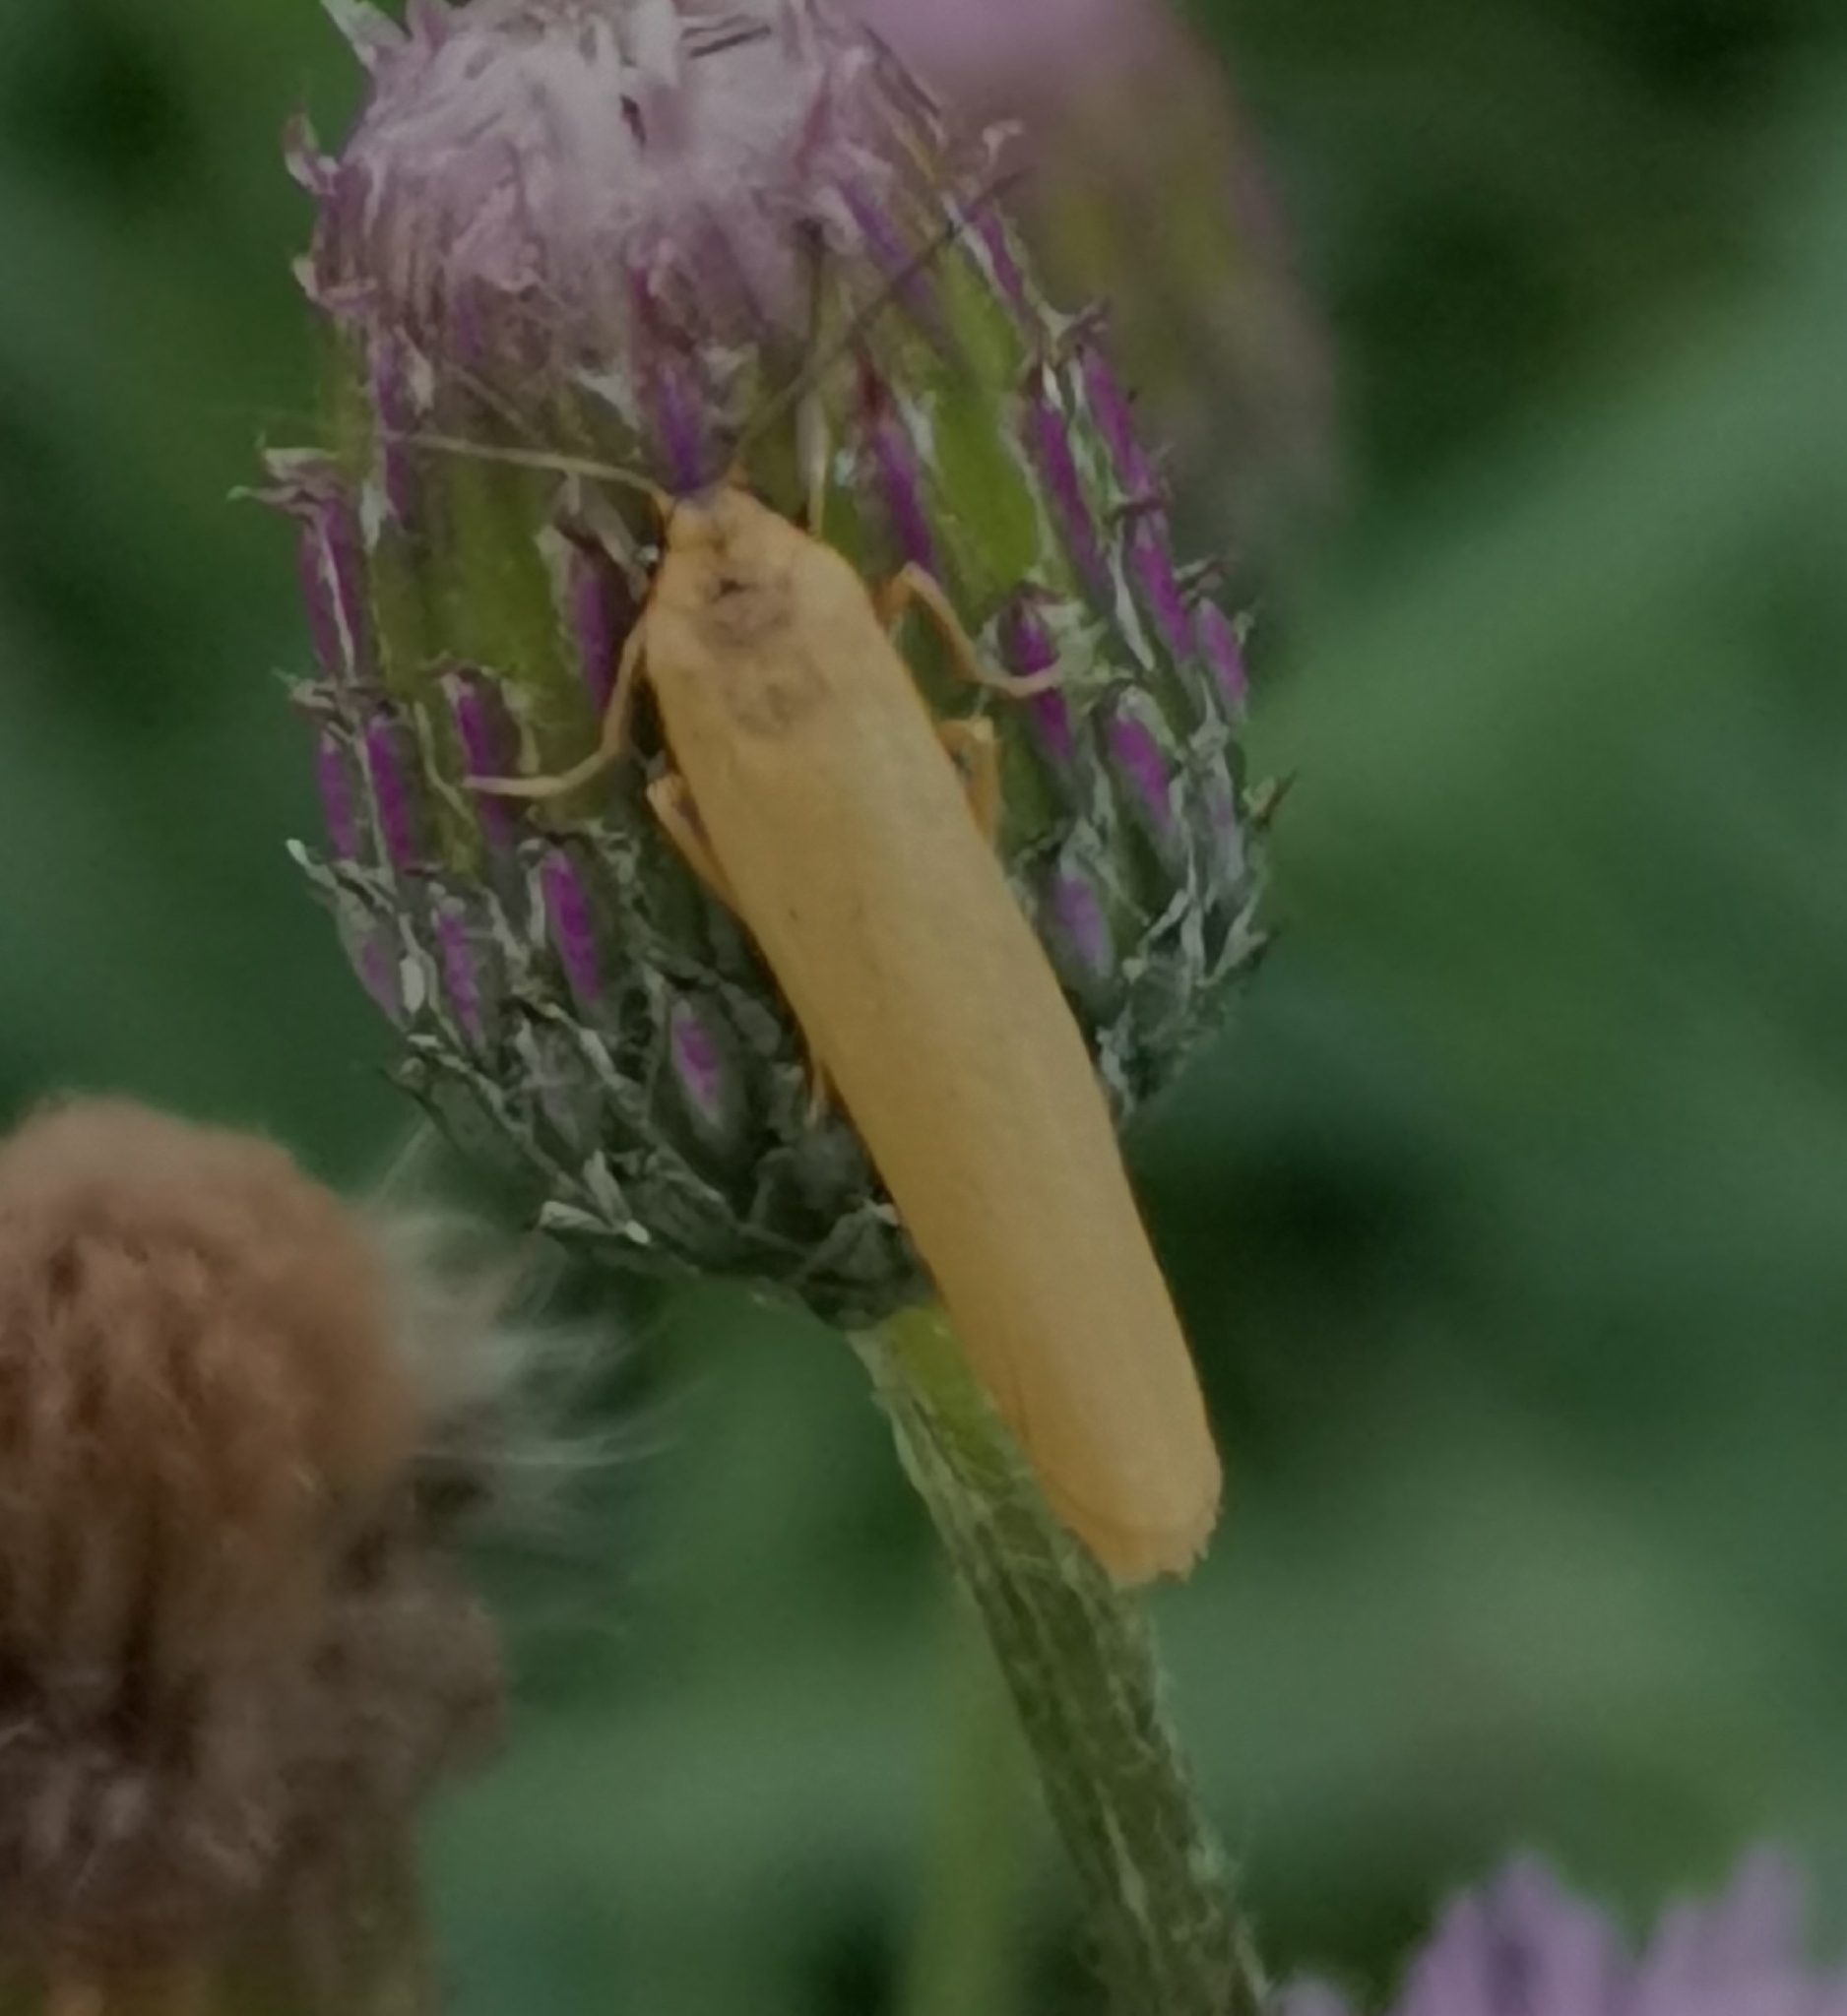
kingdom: Animalia
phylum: Arthropoda
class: Insecta
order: Lepidoptera
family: Erebidae
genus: Indalia
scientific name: Indalia lutarella
